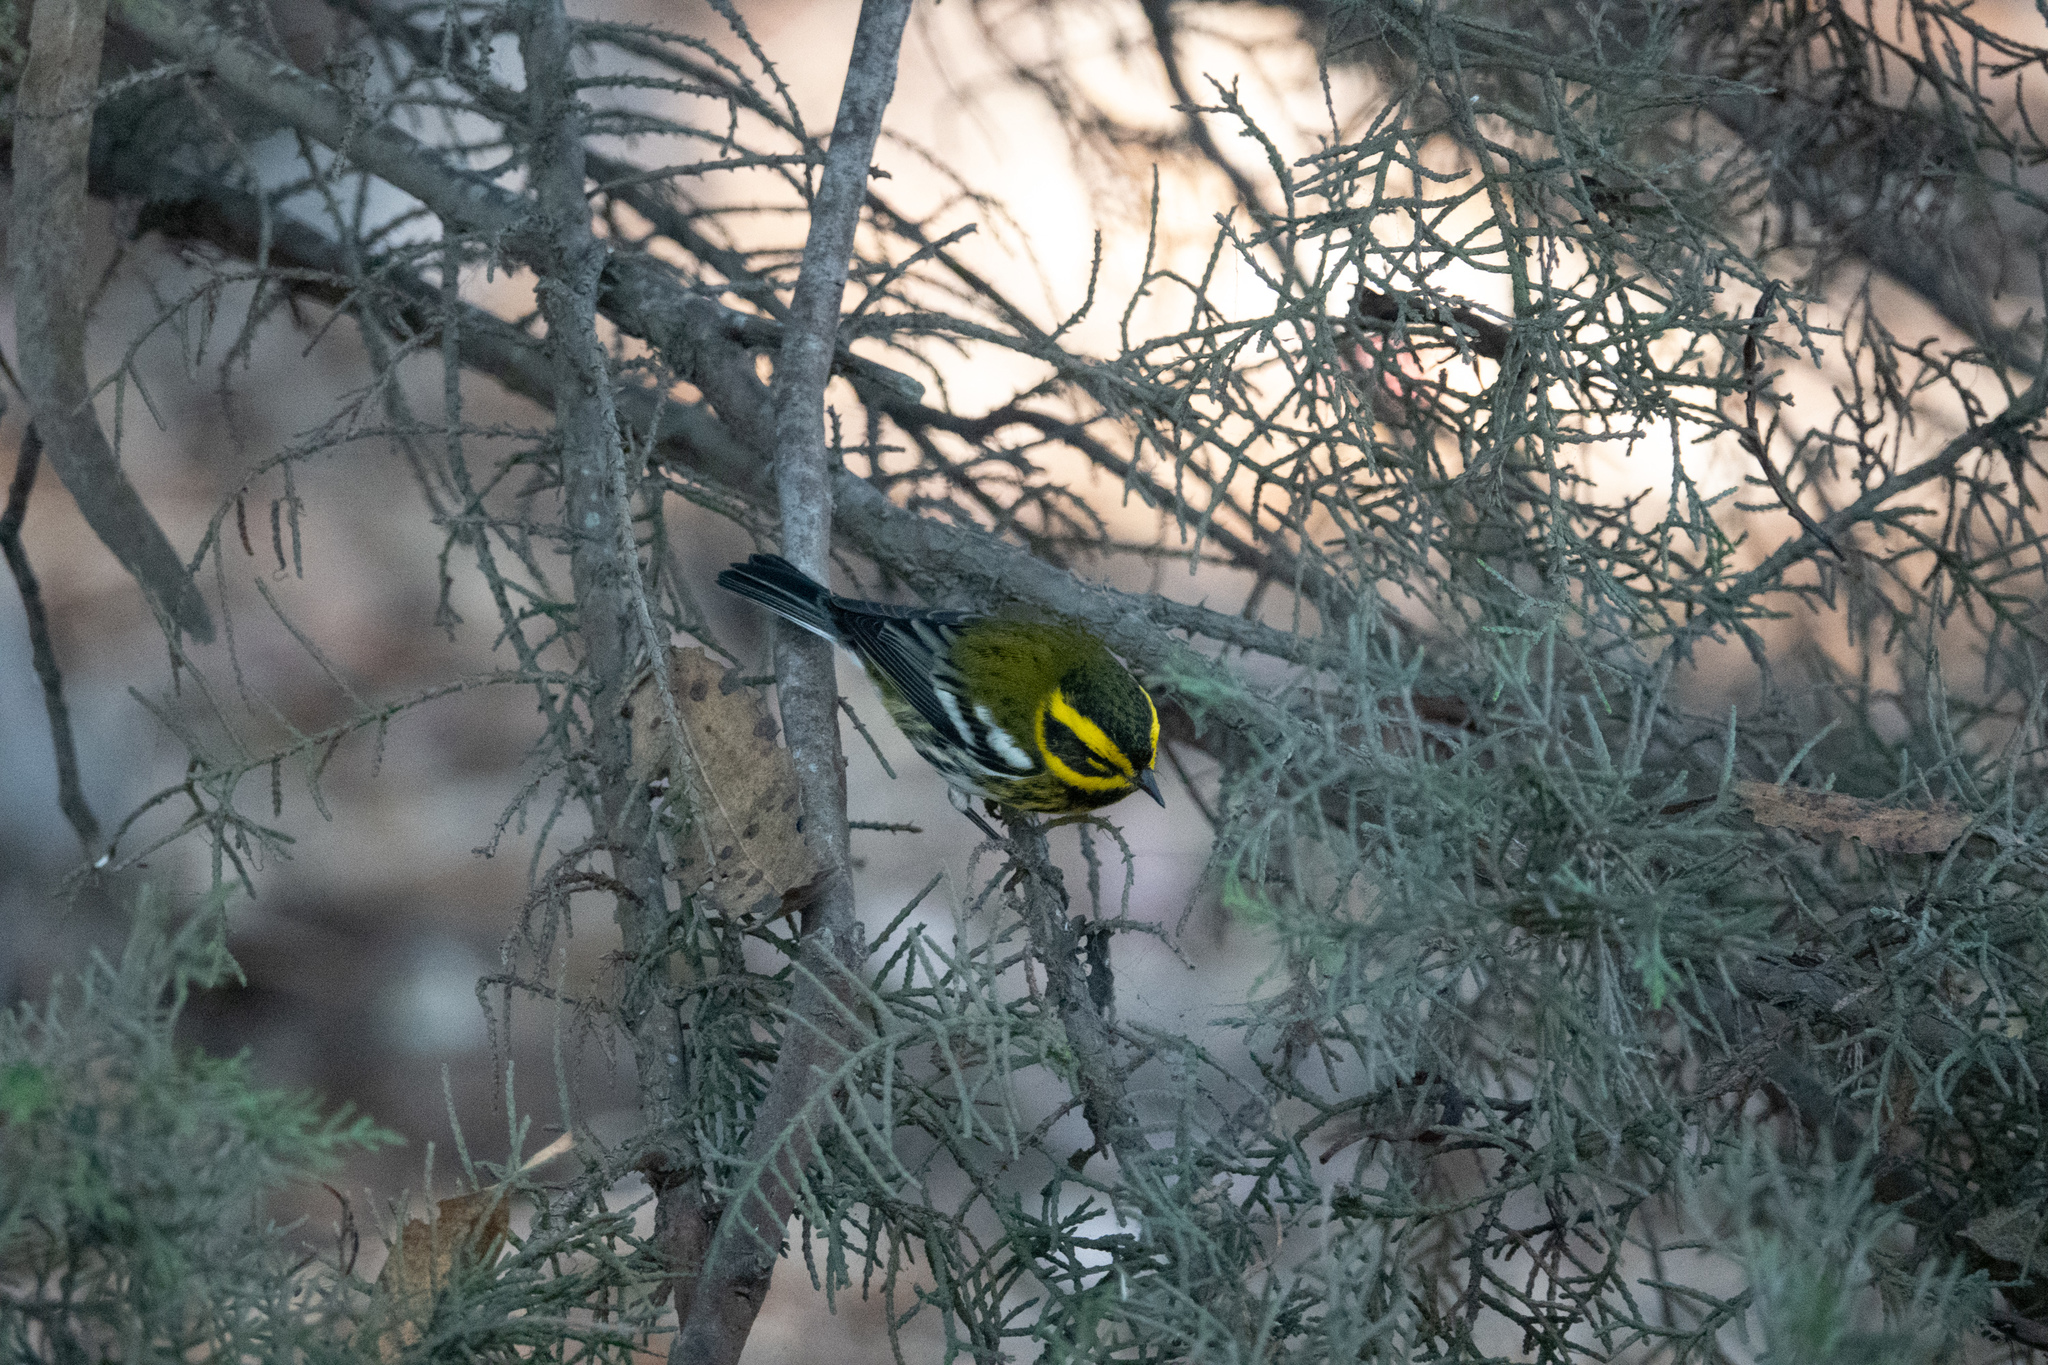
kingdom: Animalia
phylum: Chordata
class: Aves
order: Passeriformes
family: Parulidae
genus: Setophaga
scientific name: Setophaga townsendi
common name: Townsend's warbler
